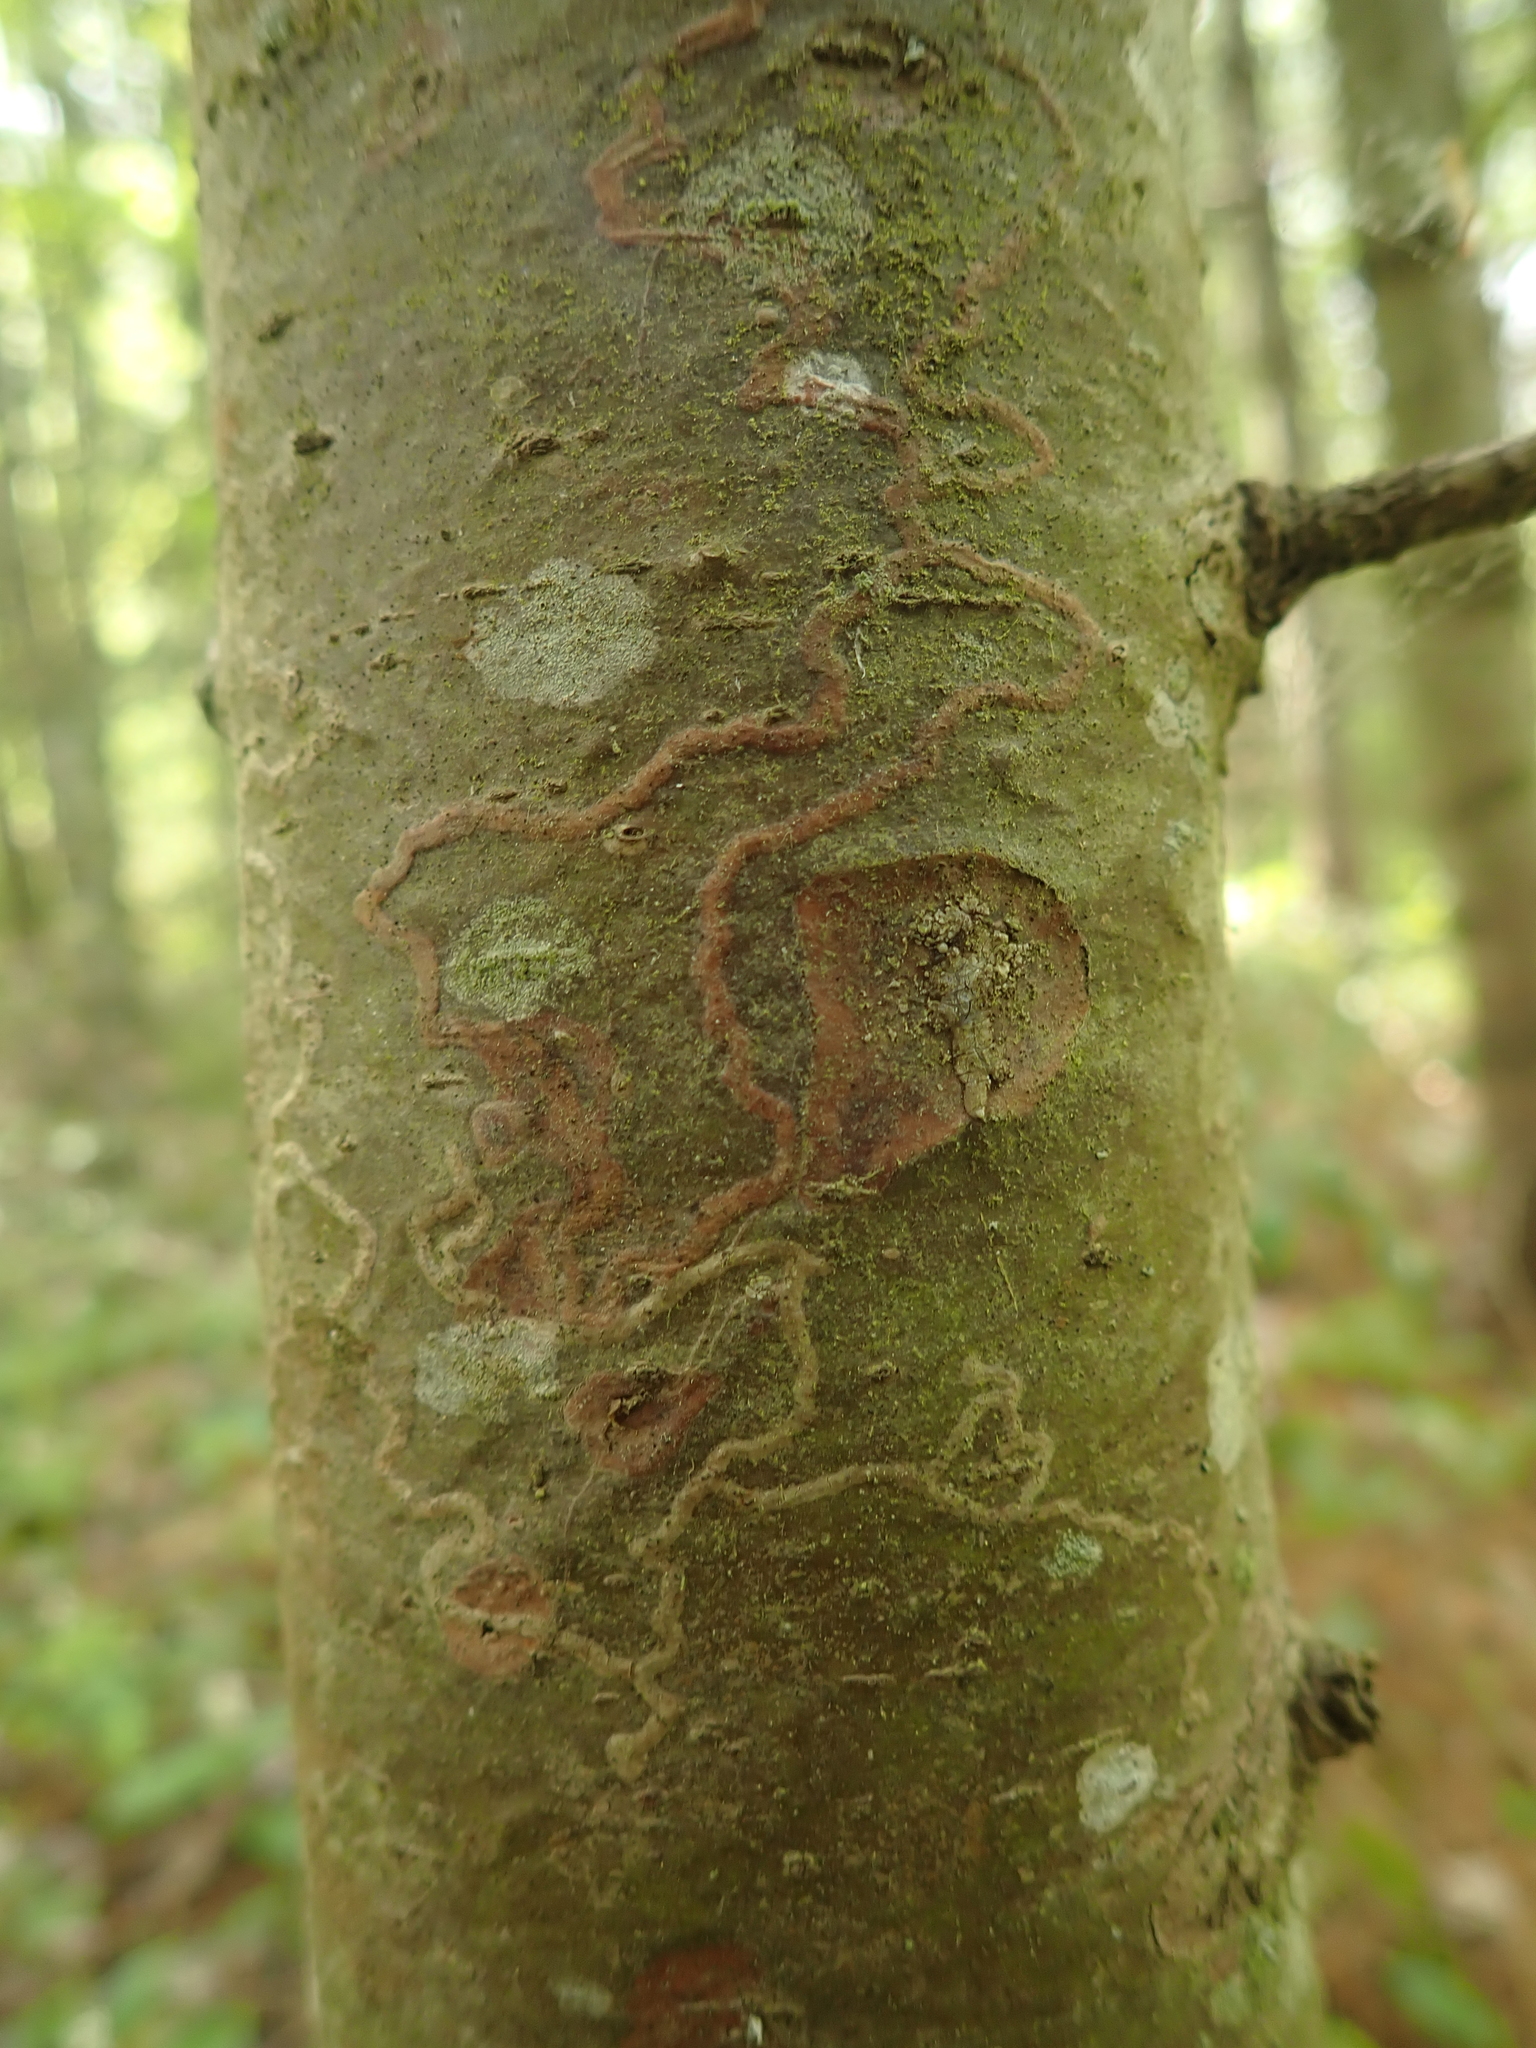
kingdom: Animalia
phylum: Arthropoda
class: Insecta
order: Lepidoptera
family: Gracillariidae
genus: Marmara
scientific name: Marmara fasciella
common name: White pine barkminer moth
